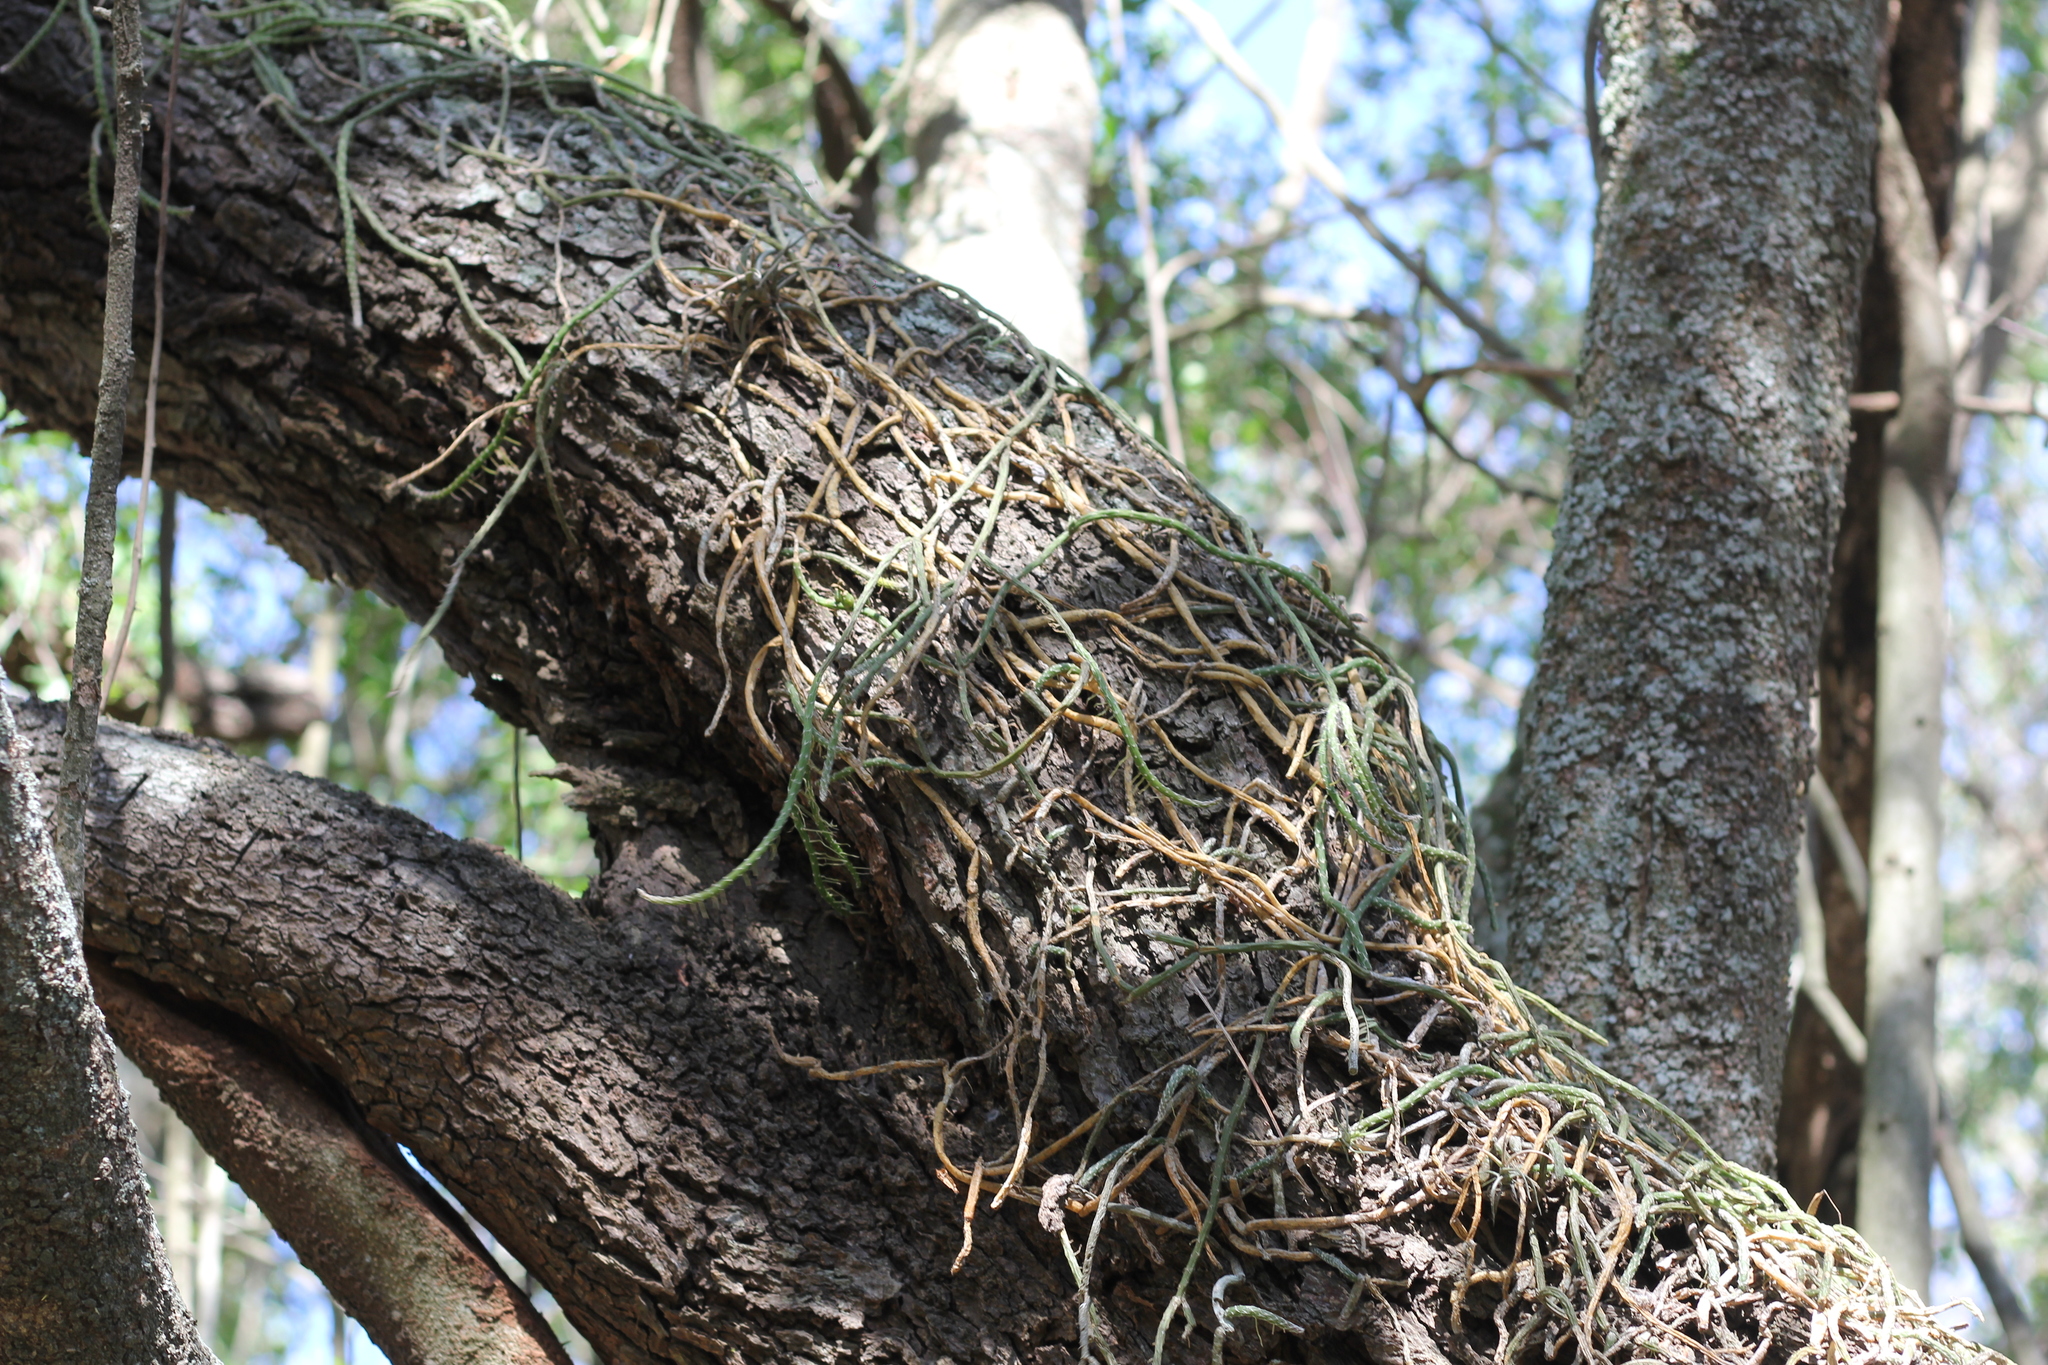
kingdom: Plantae
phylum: Tracheophyta
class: Magnoliopsida
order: Caryophyllales
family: Cactaceae
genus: Lepismium
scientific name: Lepismium lumbricoides
